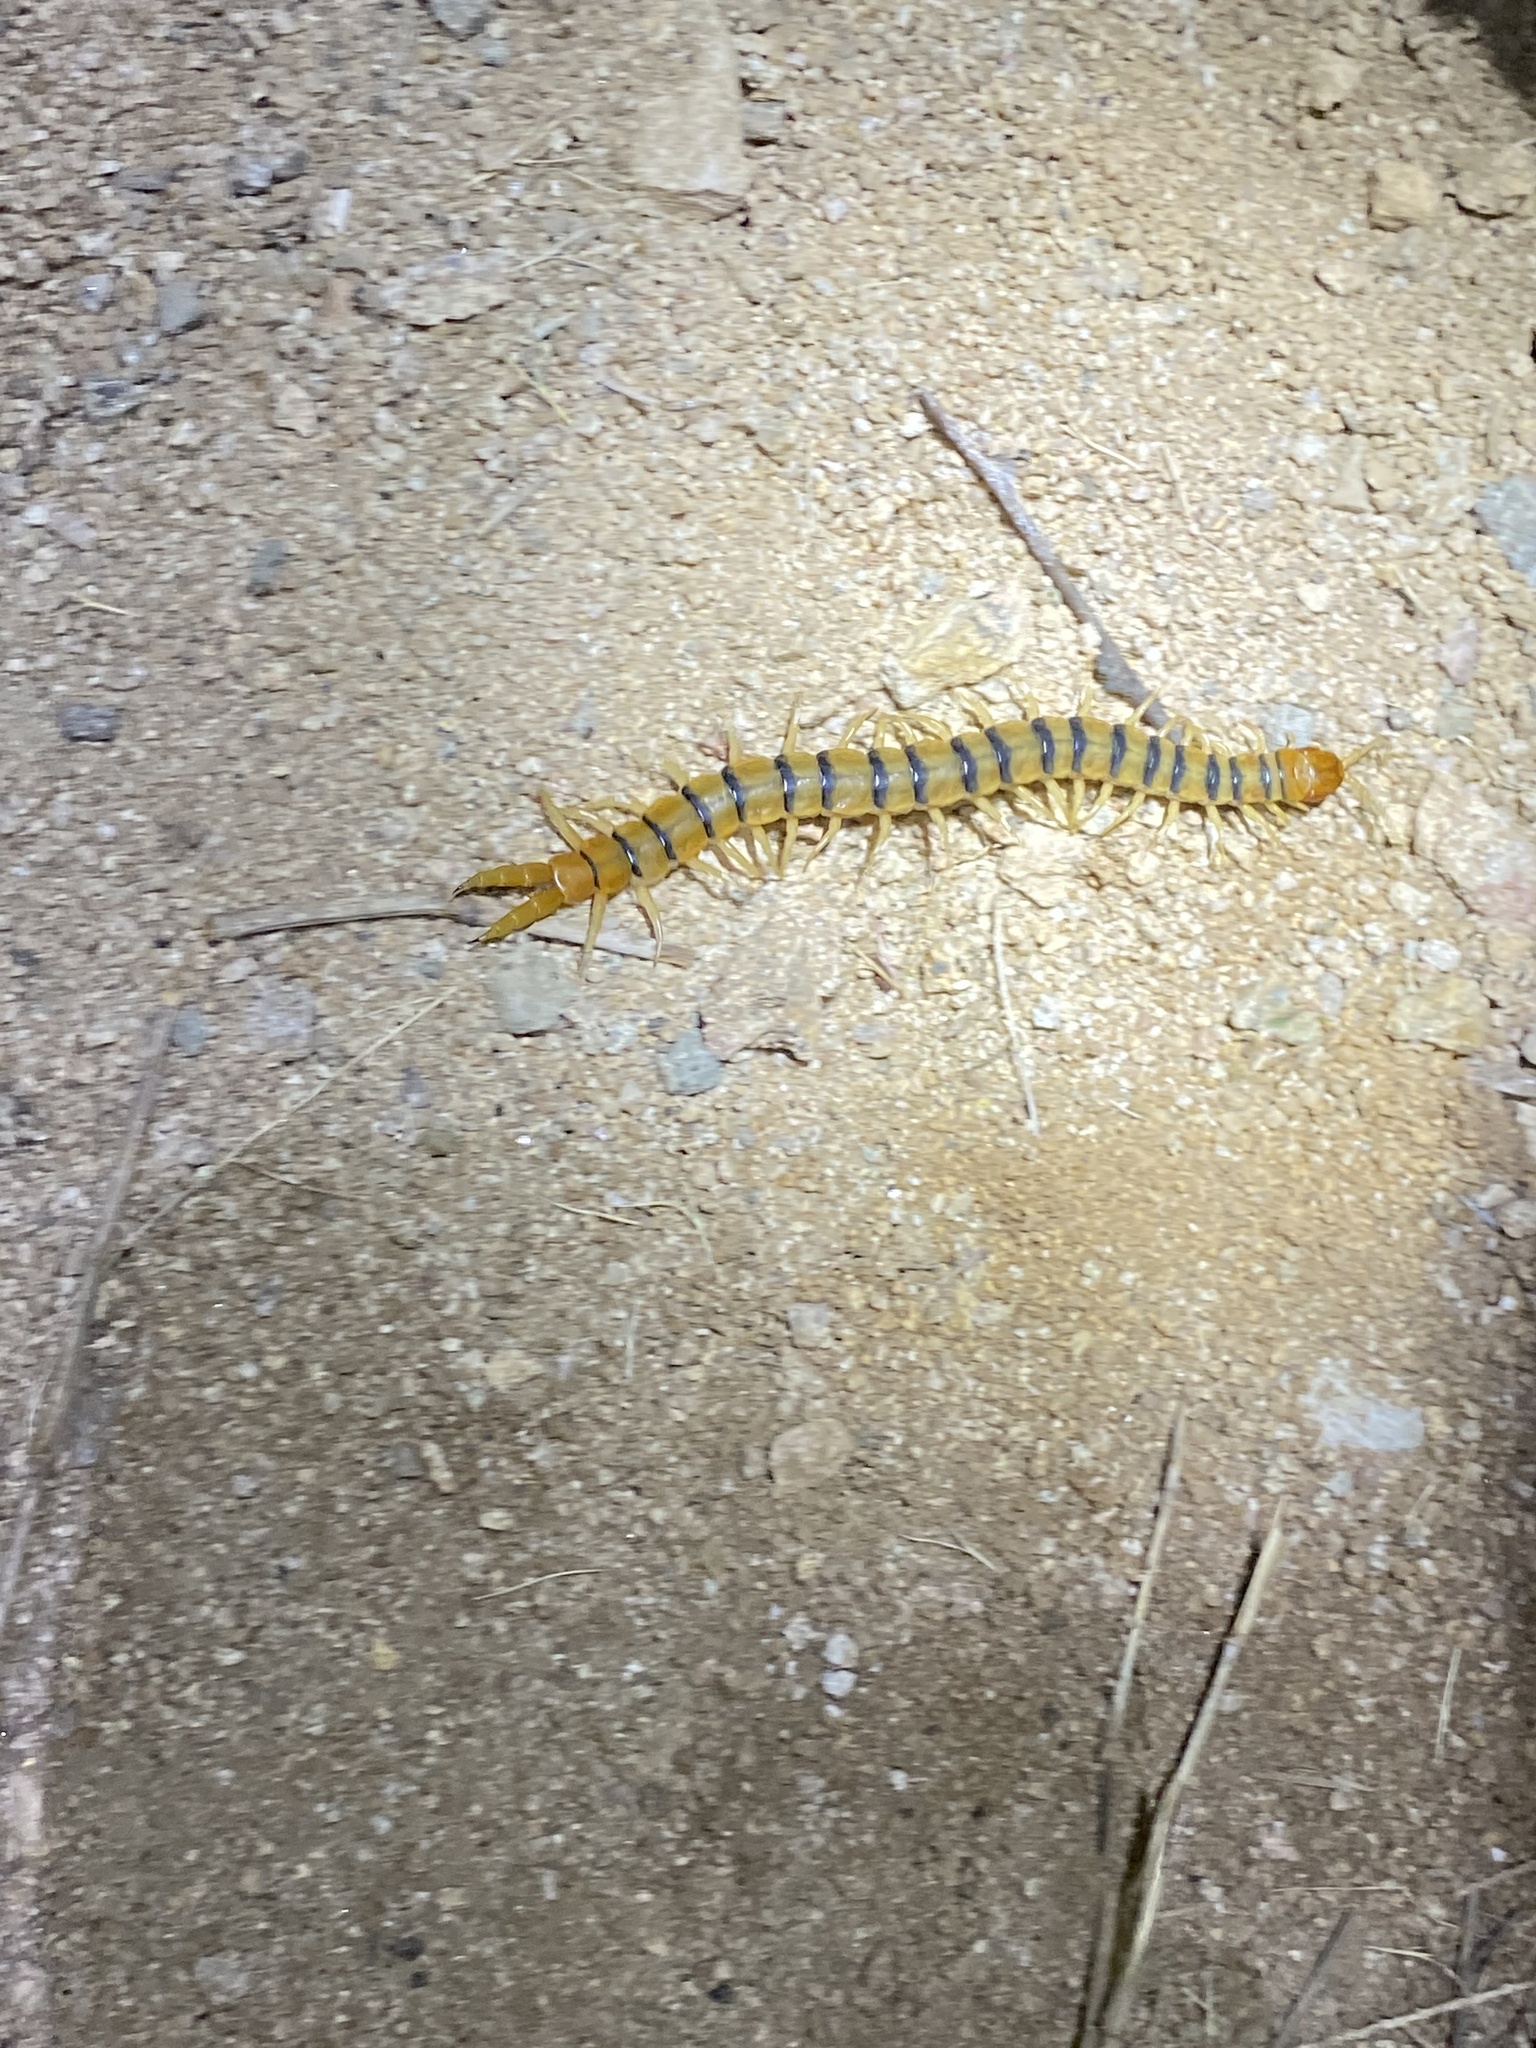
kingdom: Animalia
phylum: Arthropoda
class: Chilopoda
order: Scolopendromorpha
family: Scolopendridae
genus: Scolopendra
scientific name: Scolopendra polymorpha
